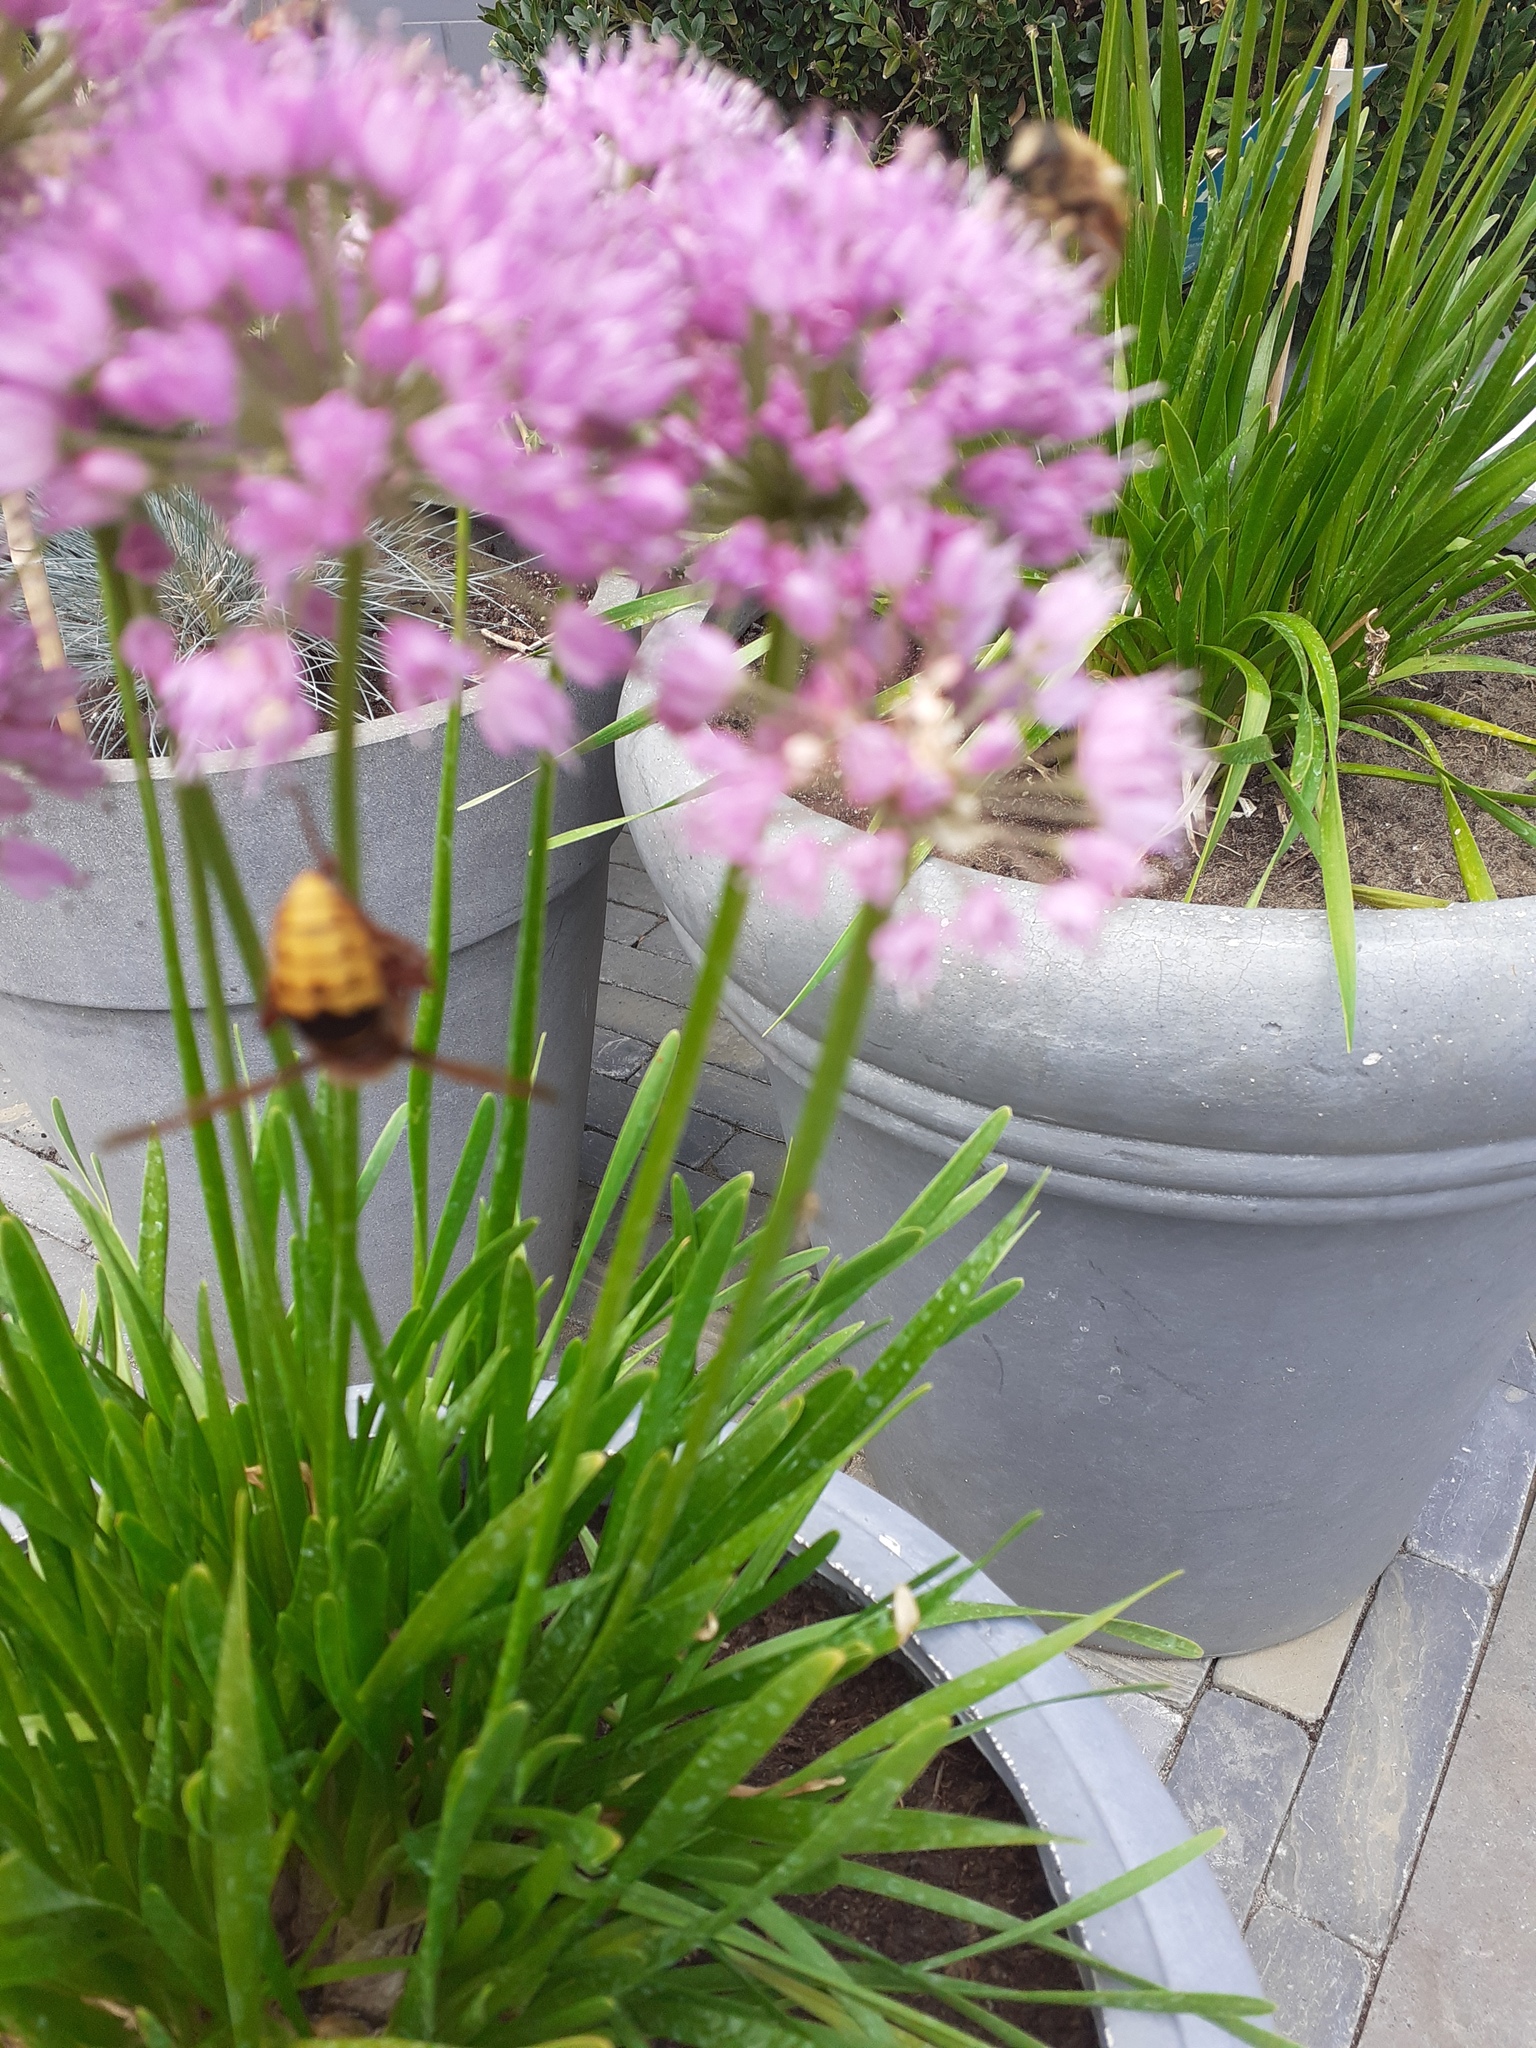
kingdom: Animalia
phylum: Arthropoda
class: Insecta
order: Hymenoptera
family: Vespidae
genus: Vespa
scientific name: Vespa crabro
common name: Hornet
